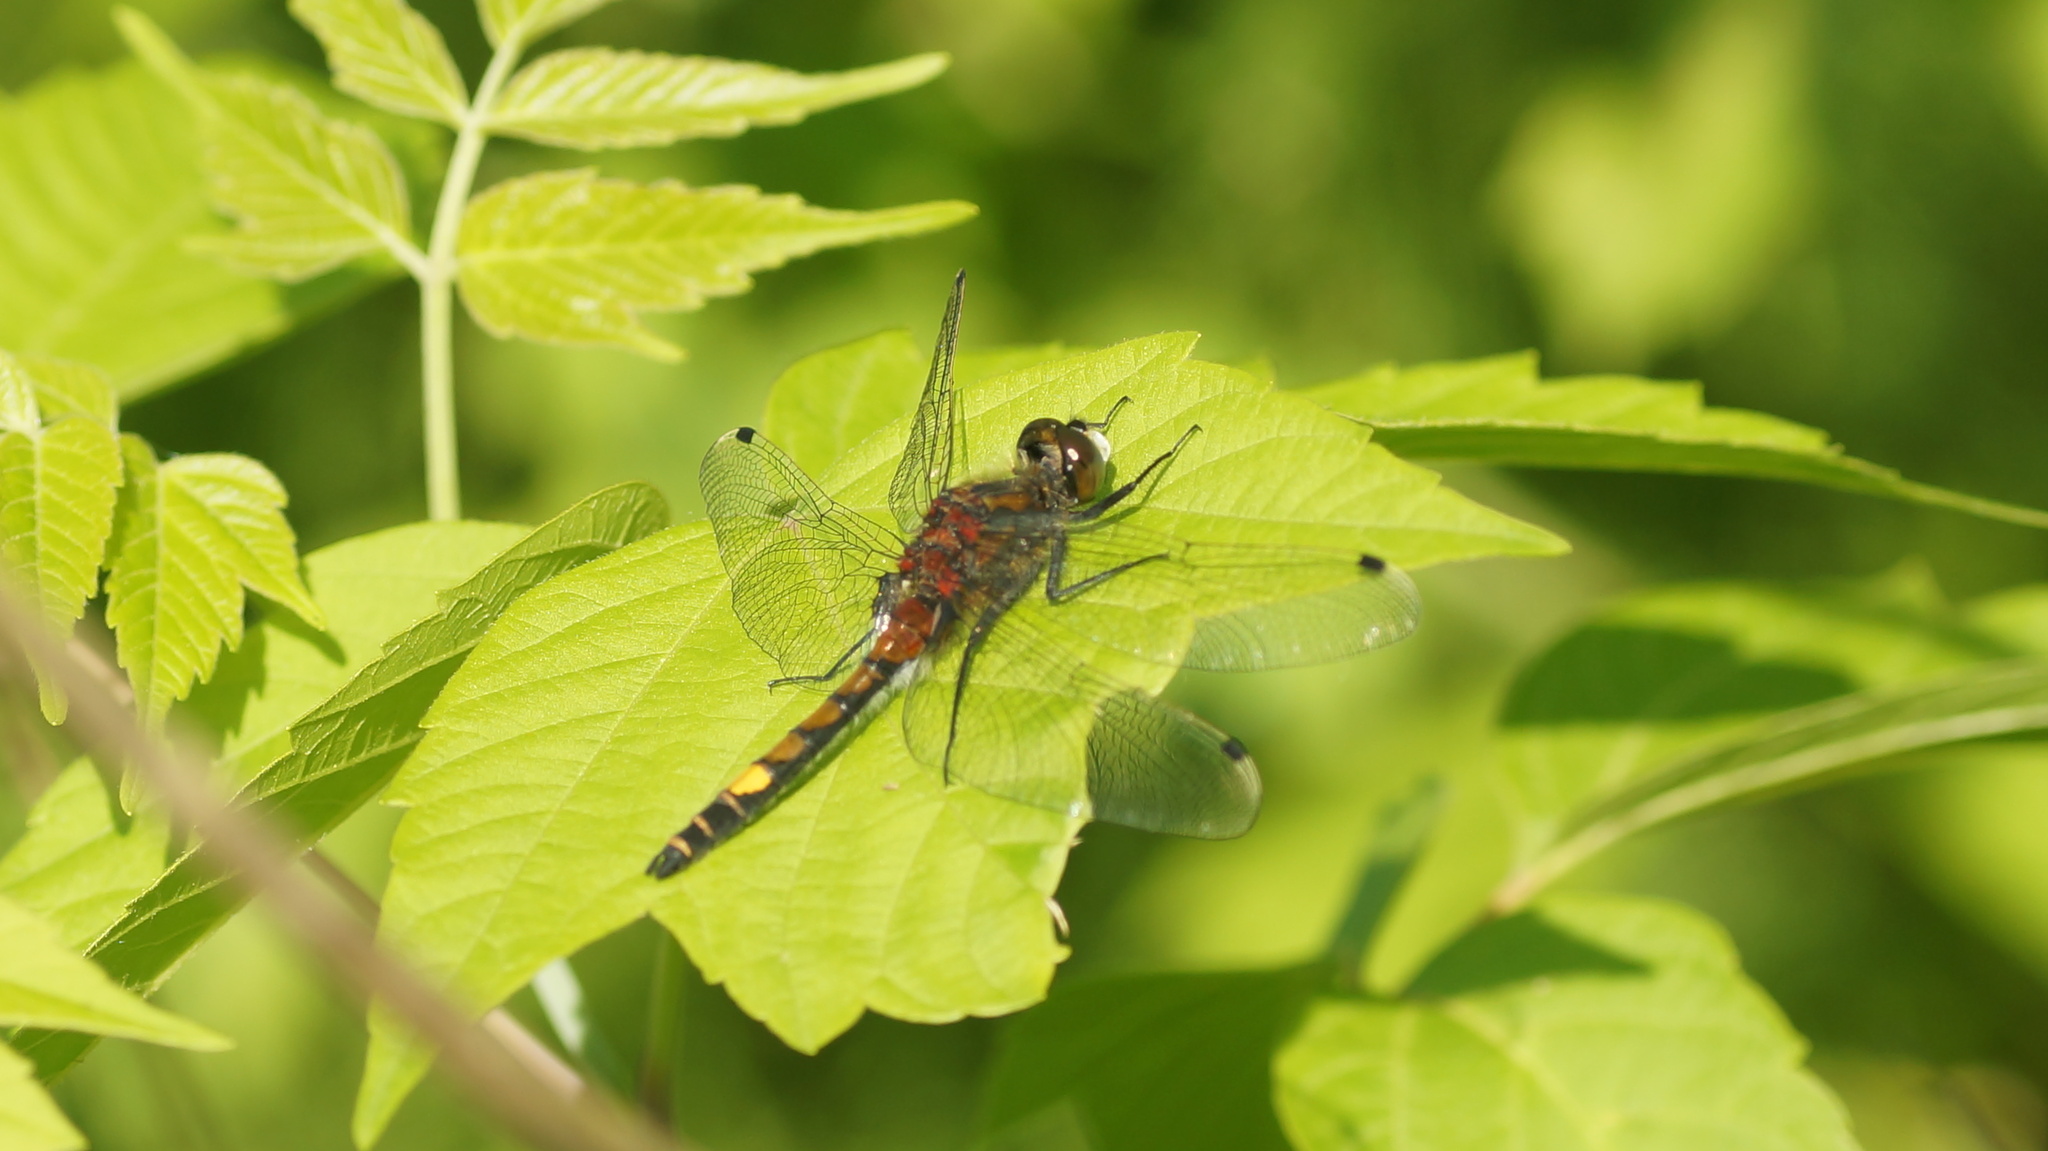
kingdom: Animalia
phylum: Arthropoda
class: Insecta
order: Odonata
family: Libellulidae
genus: Leucorrhinia
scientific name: Leucorrhinia pectoralis
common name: Yellow-spotted whiteface
